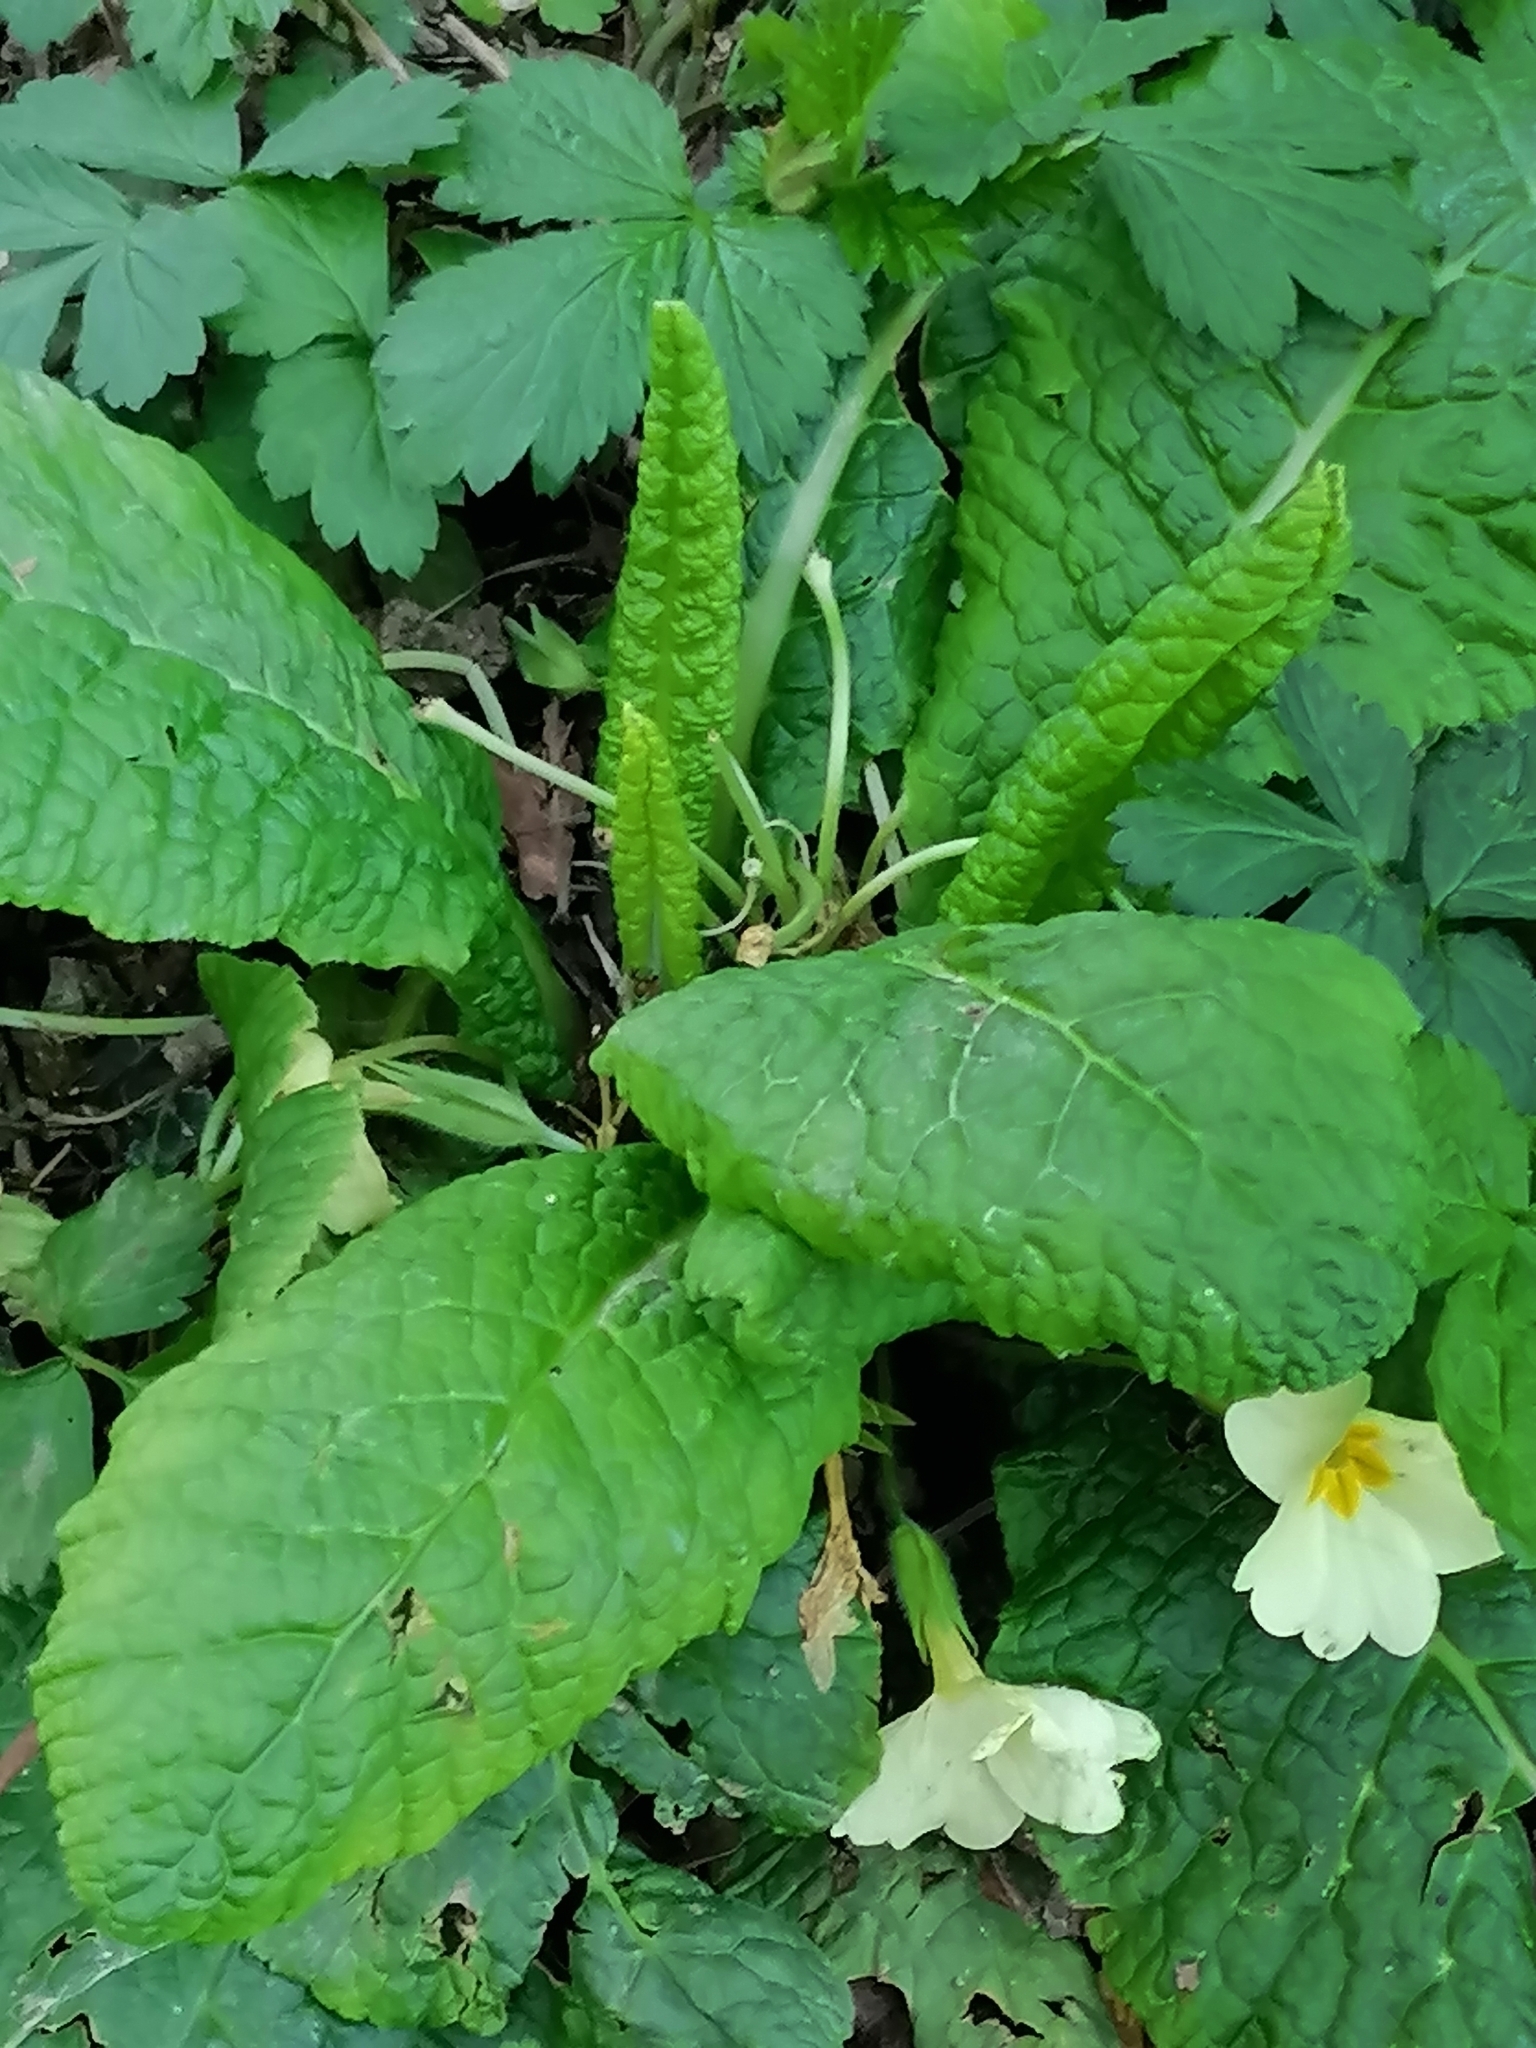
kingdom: Plantae
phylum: Tracheophyta
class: Magnoliopsida
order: Ericales
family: Primulaceae
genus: Primula
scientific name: Primula vulgaris
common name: Primrose
